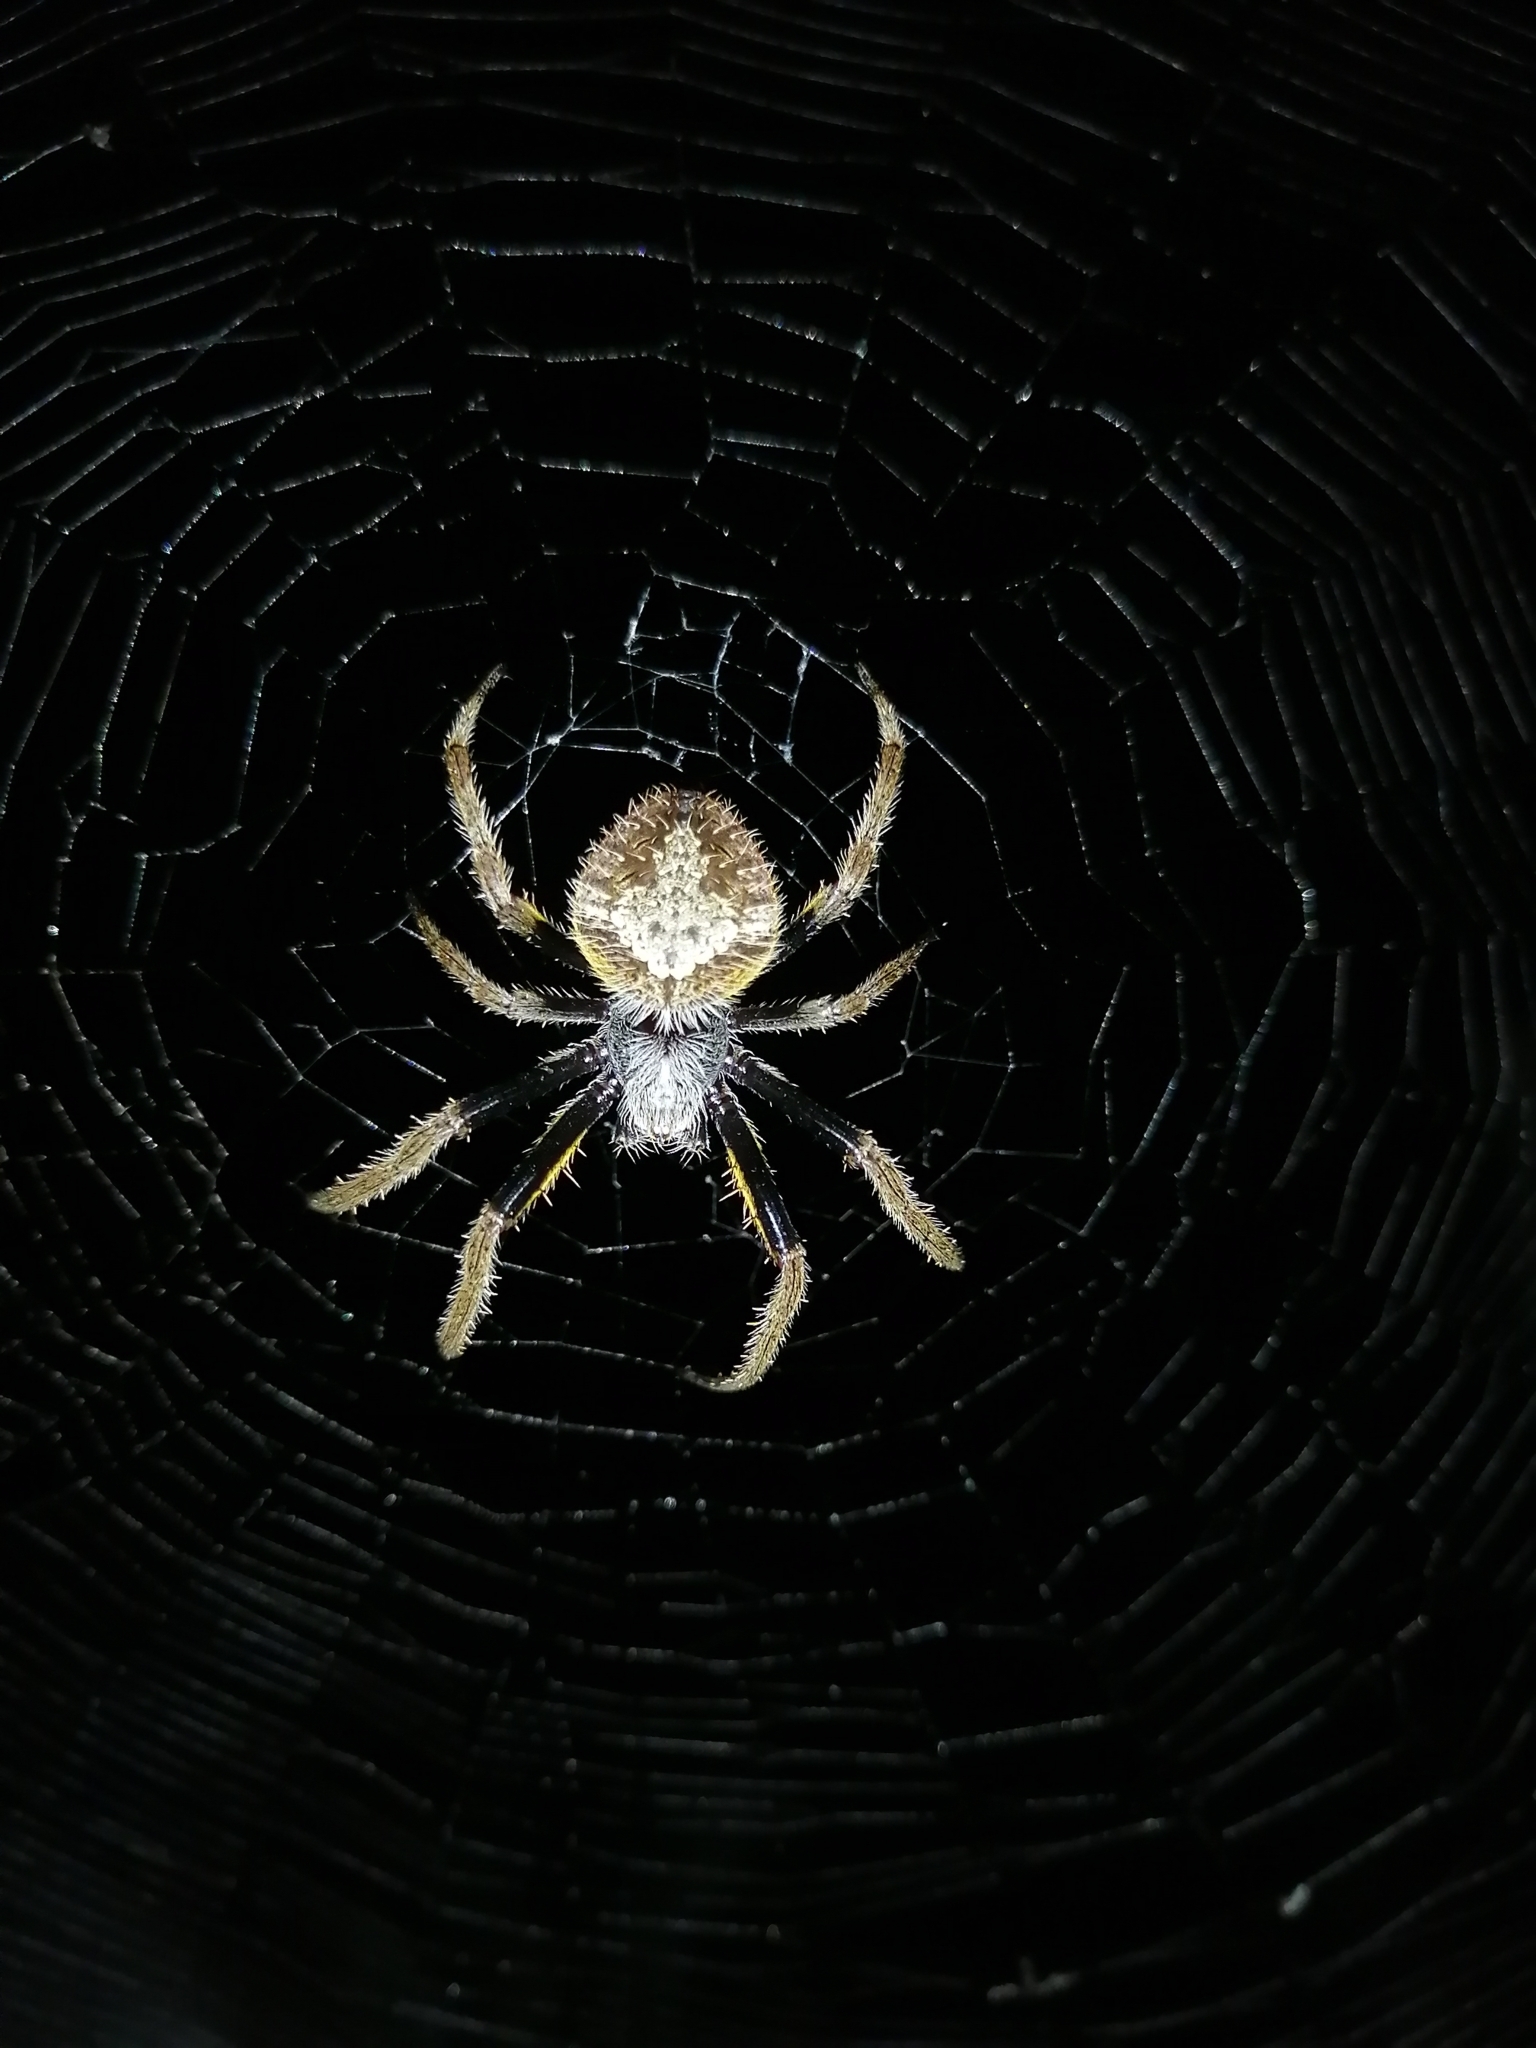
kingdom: Animalia
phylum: Arthropoda
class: Arachnida
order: Araneae
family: Araneidae
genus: Eriophora
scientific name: Eriophora ravilla
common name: Orb weavers
